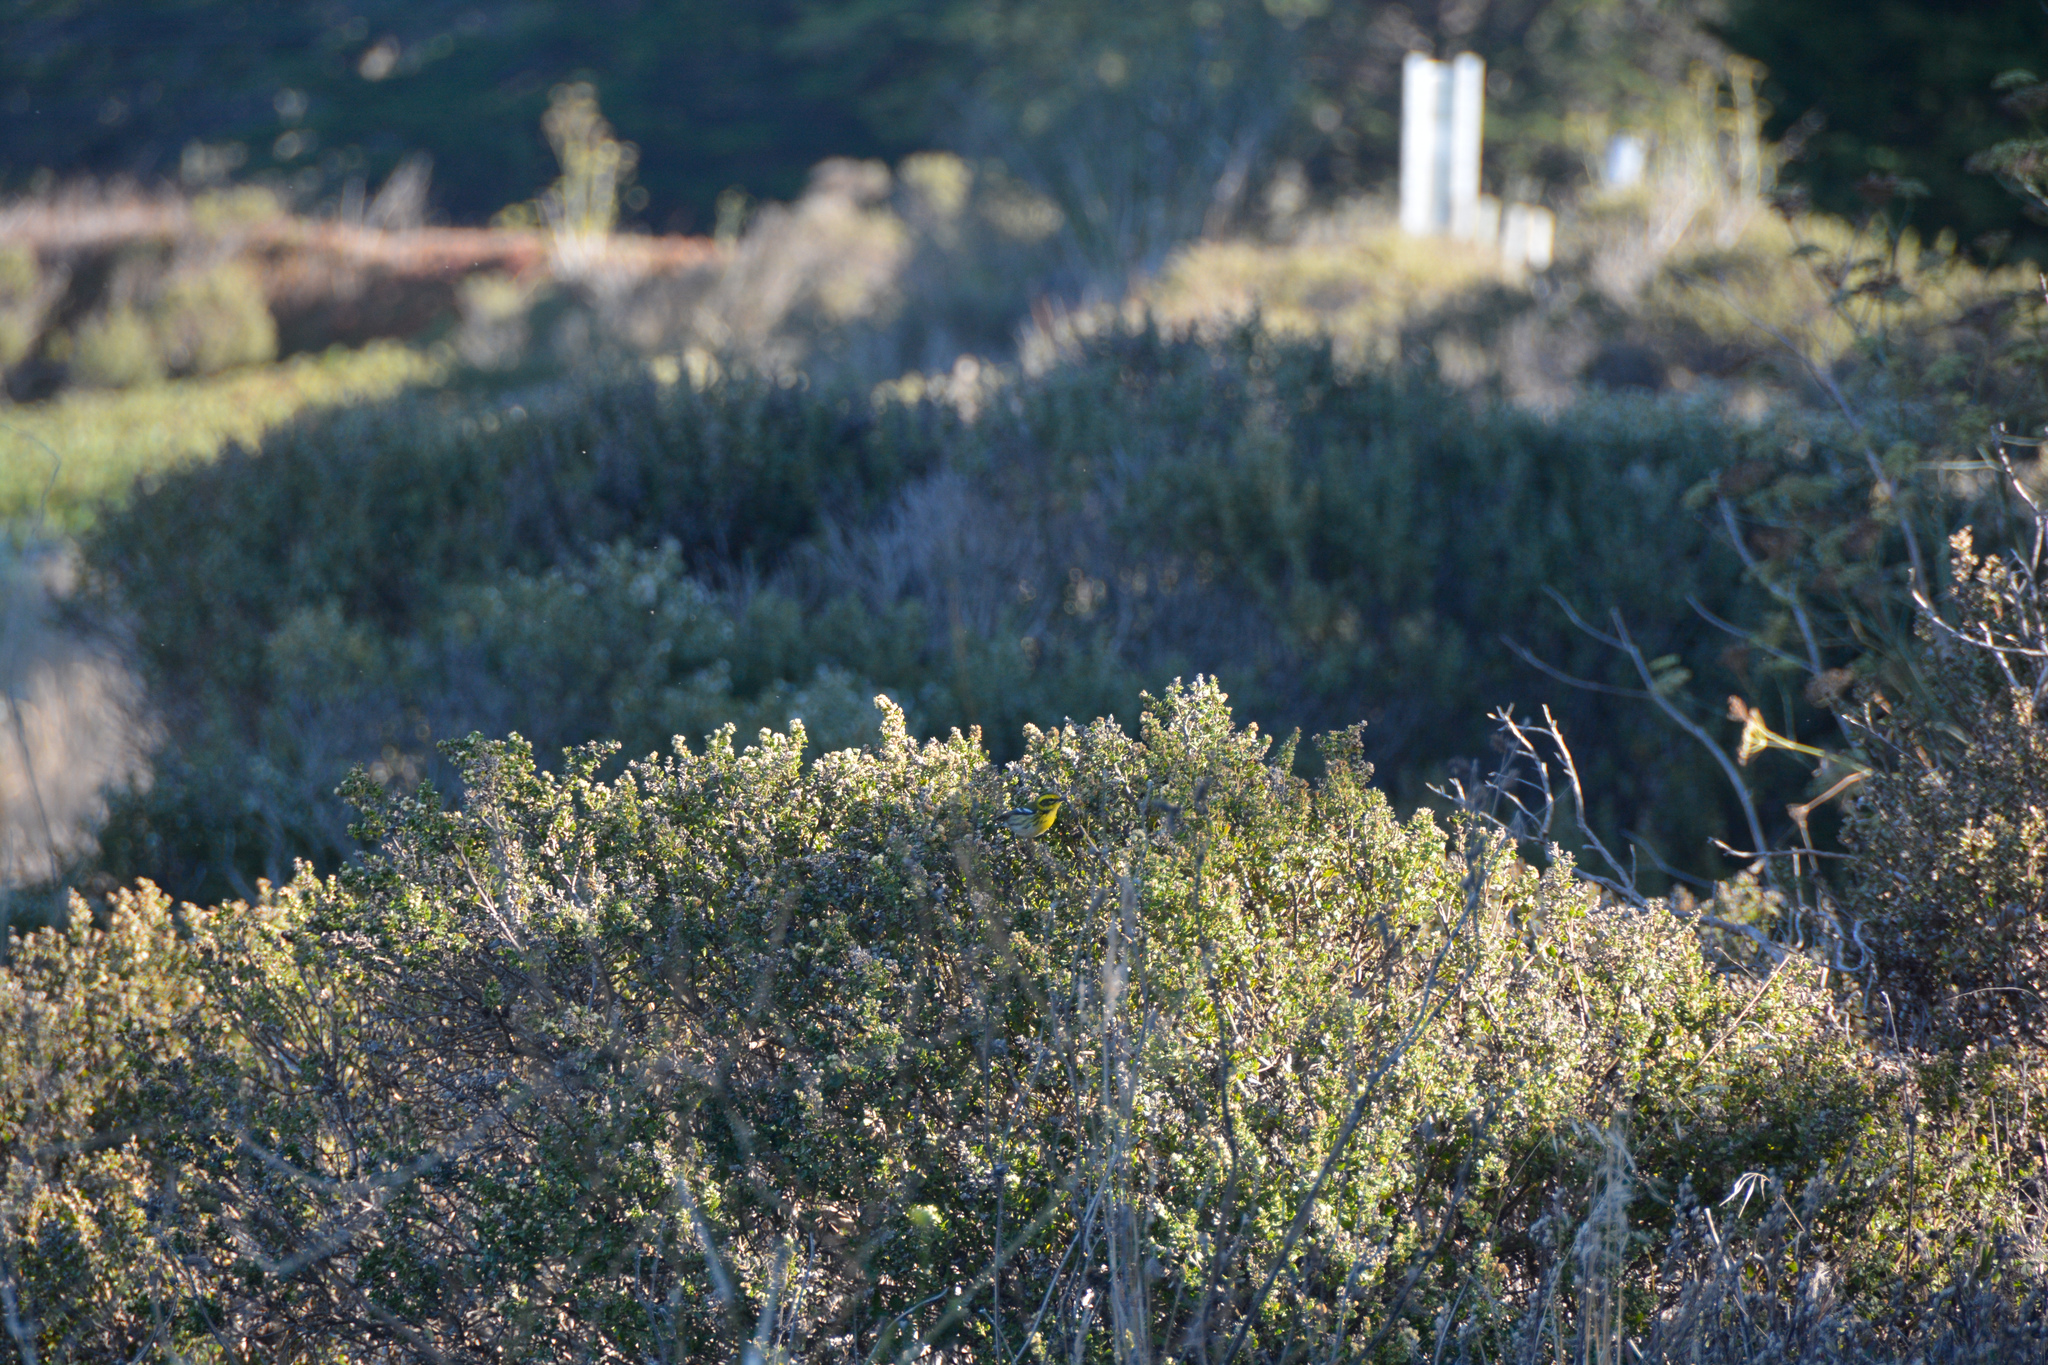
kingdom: Animalia
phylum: Chordata
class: Aves
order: Passeriformes
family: Parulidae
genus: Setophaga
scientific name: Setophaga townsendi
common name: Townsend's warbler
